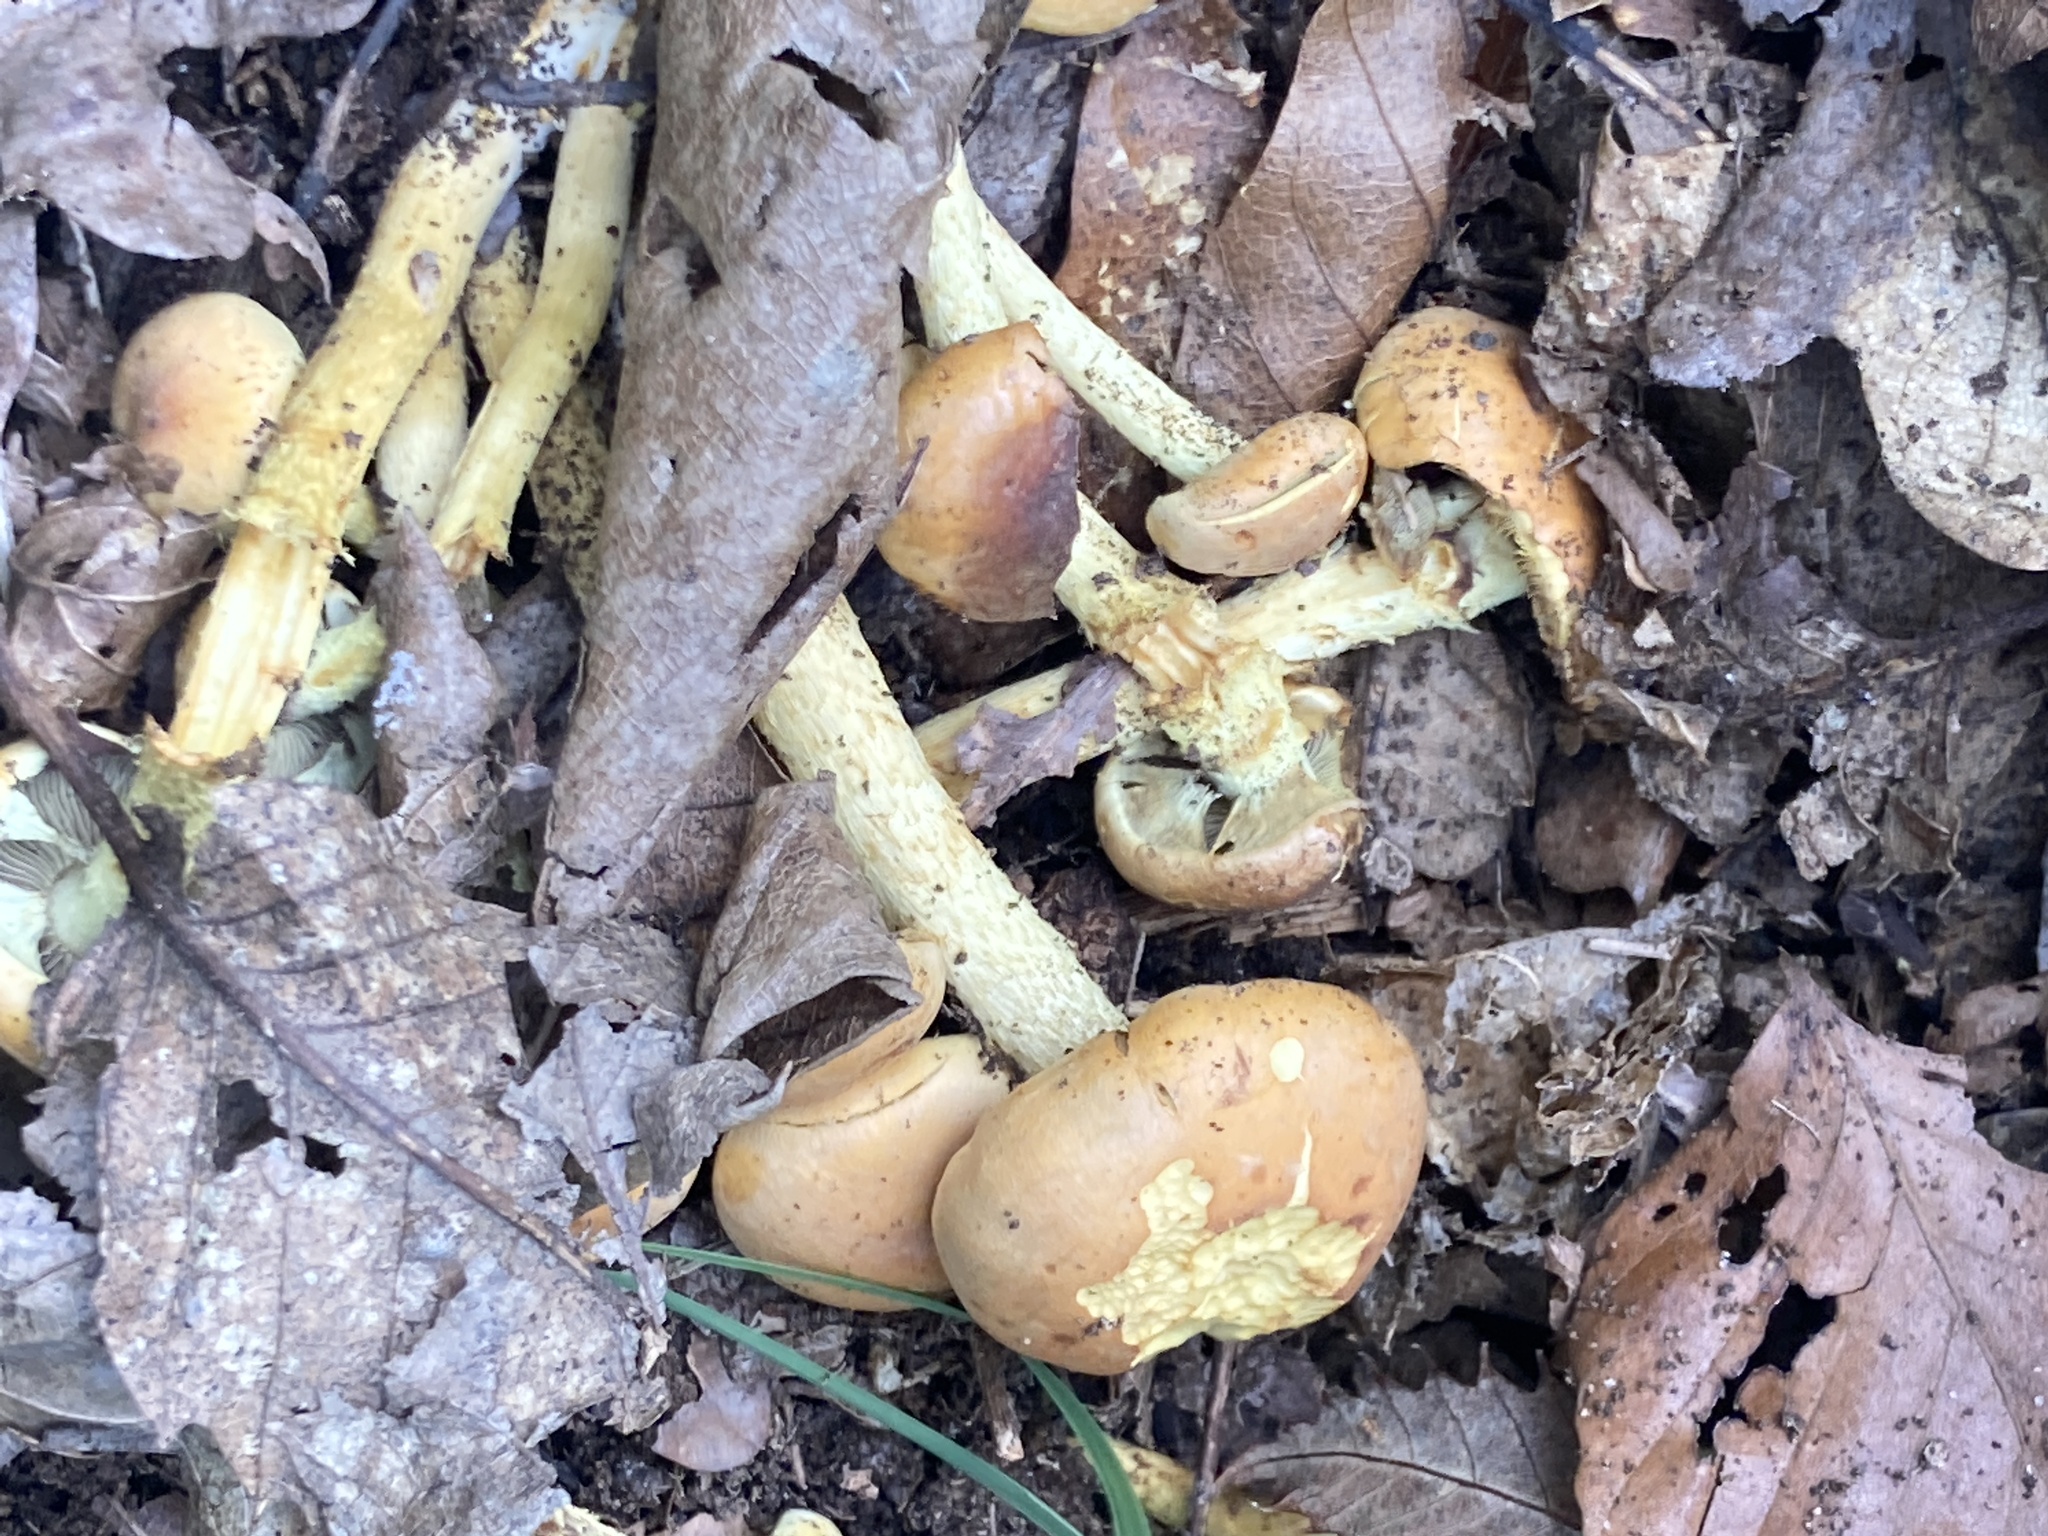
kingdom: Fungi
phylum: Basidiomycota
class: Agaricomycetes
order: Agaricales
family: Strophariaceae
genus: Hypholoma
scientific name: Hypholoma fasciculare
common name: Sulphur tuft
